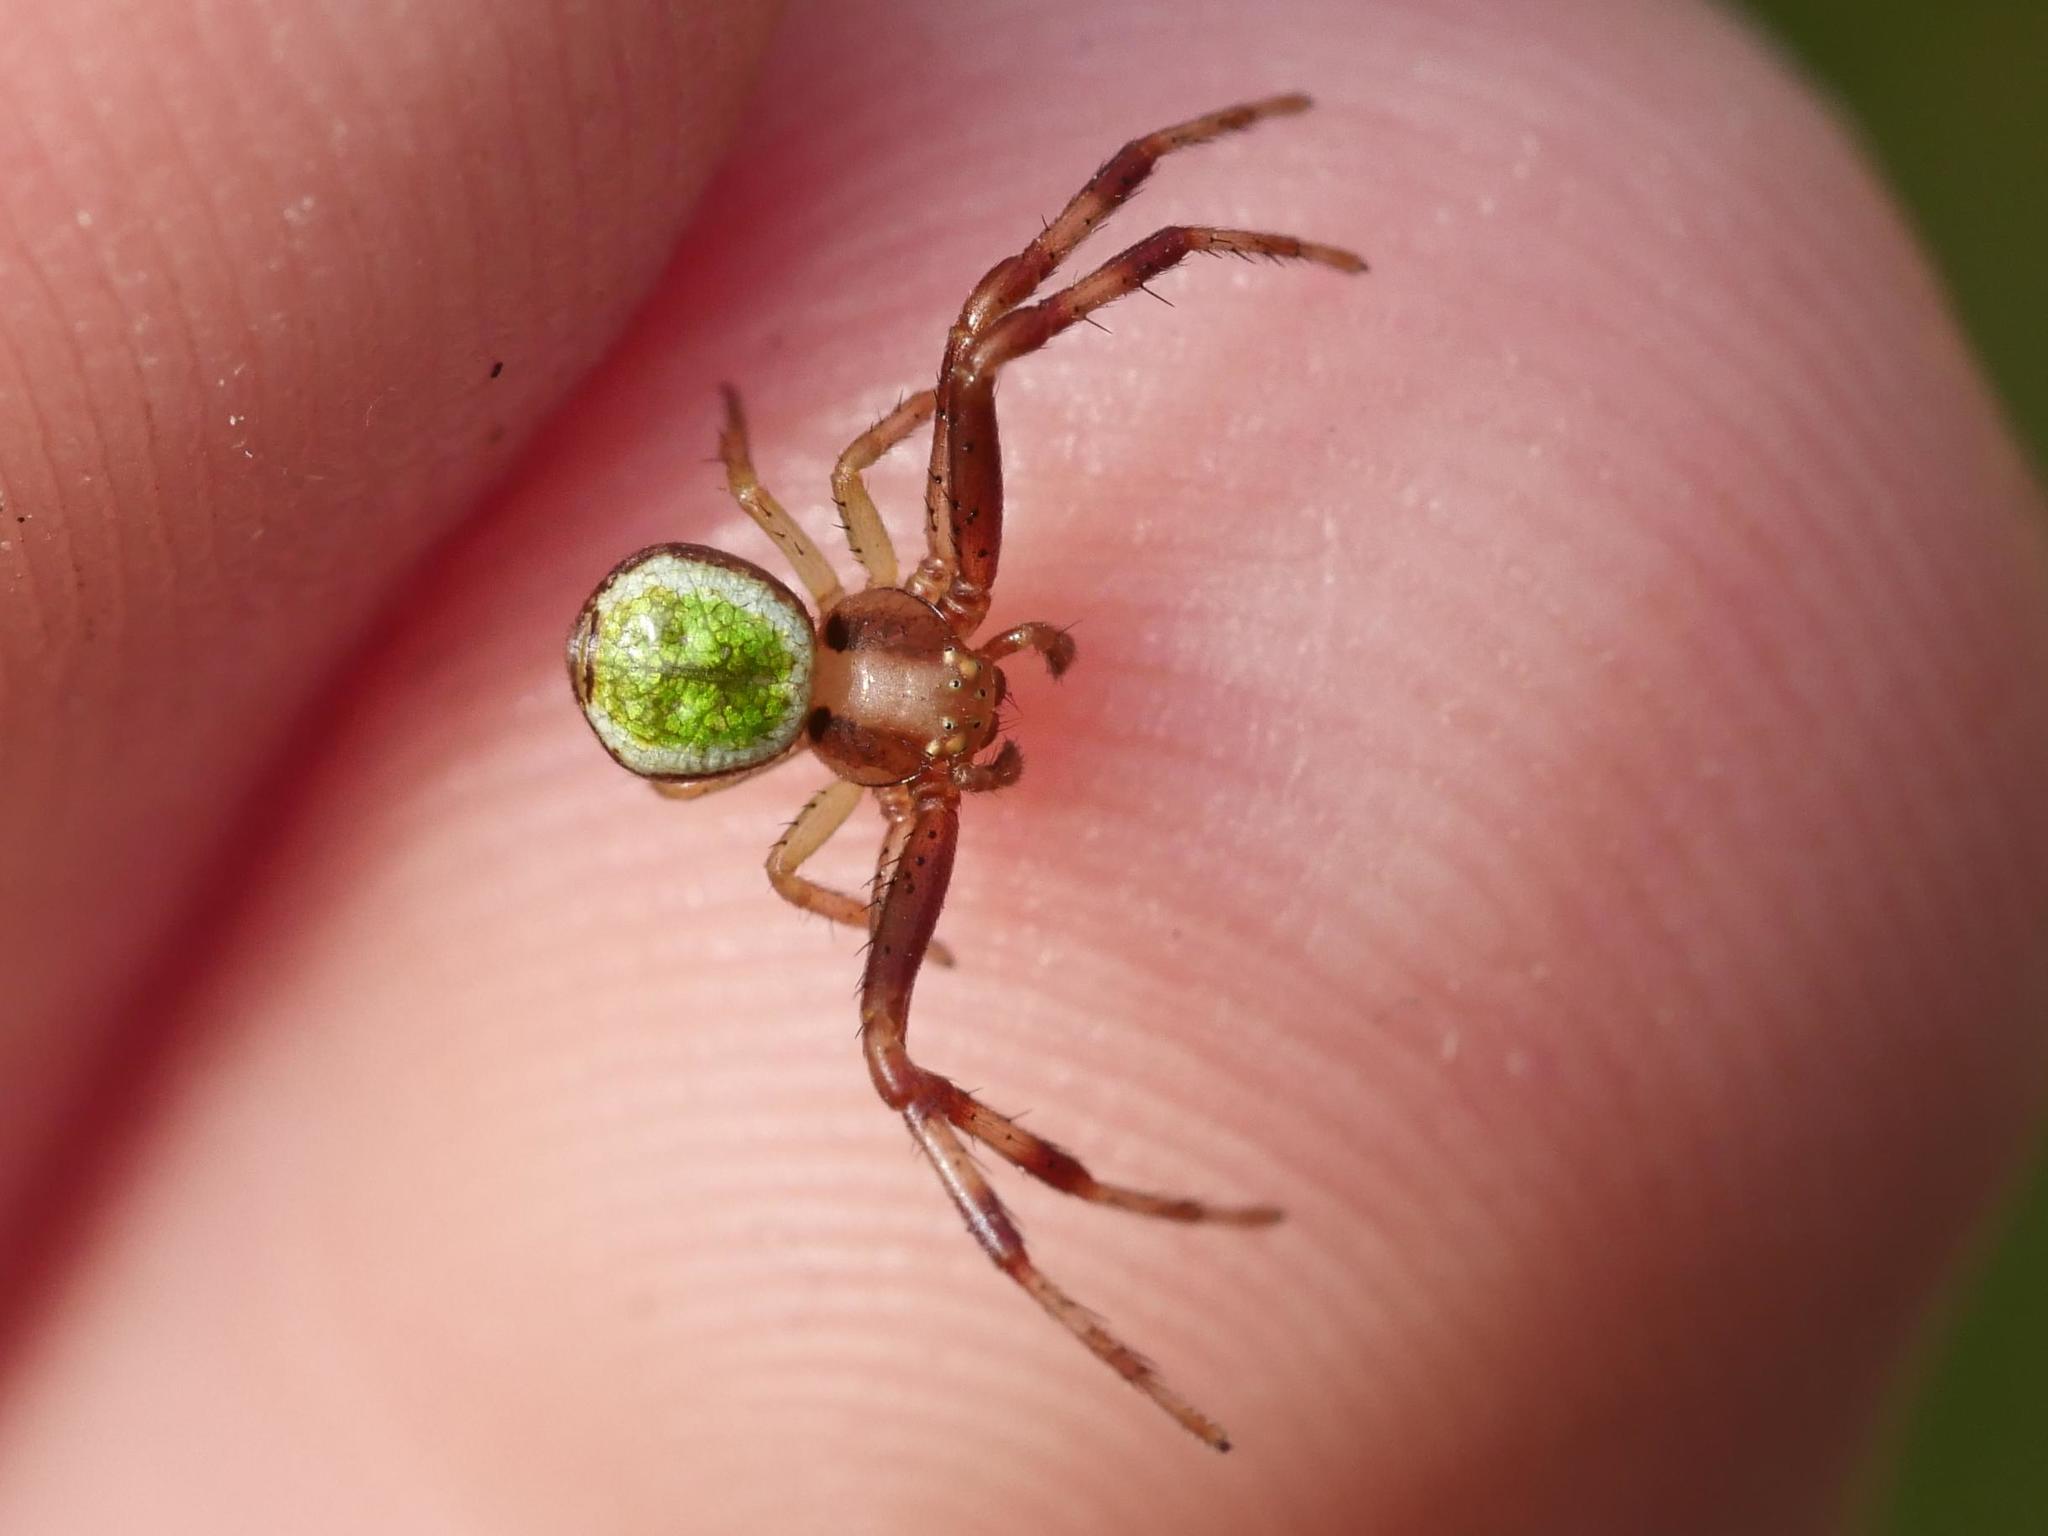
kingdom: Animalia
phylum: Arthropoda
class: Arachnida
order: Araneae
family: Thomisidae
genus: Ebrechtella
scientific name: Ebrechtella tricuspidata
